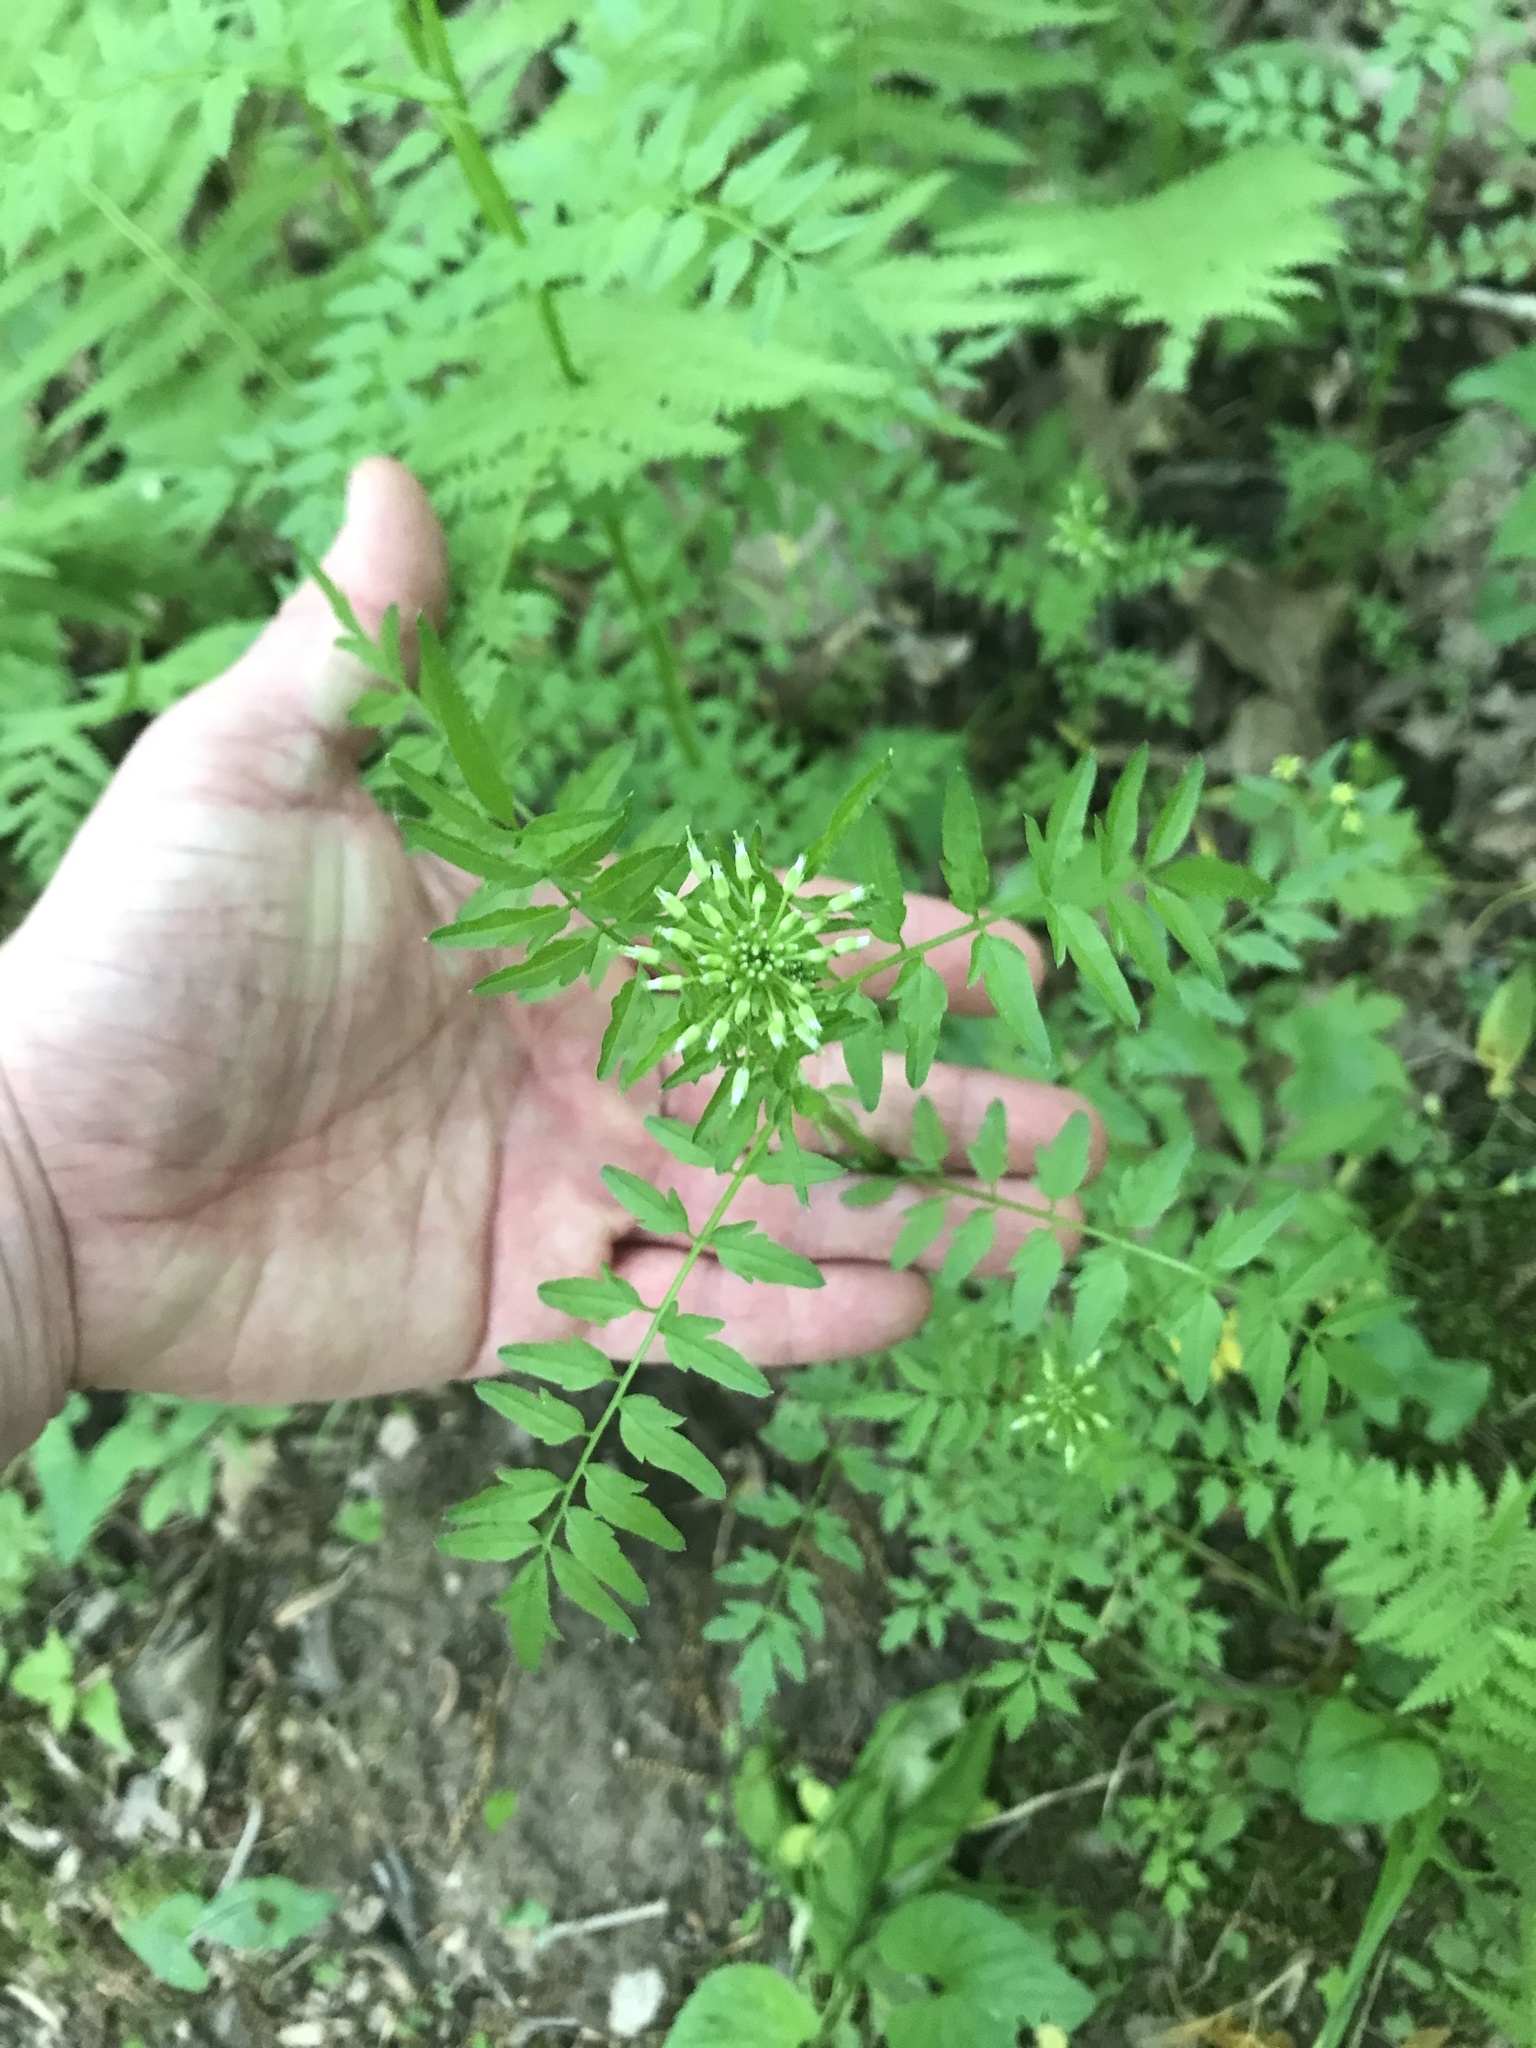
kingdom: Plantae
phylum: Tracheophyta
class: Magnoliopsida
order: Brassicales
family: Brassicaceae
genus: Cardamine
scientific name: Cardamine impatiens
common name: Narrow-leaved bitter-cress
